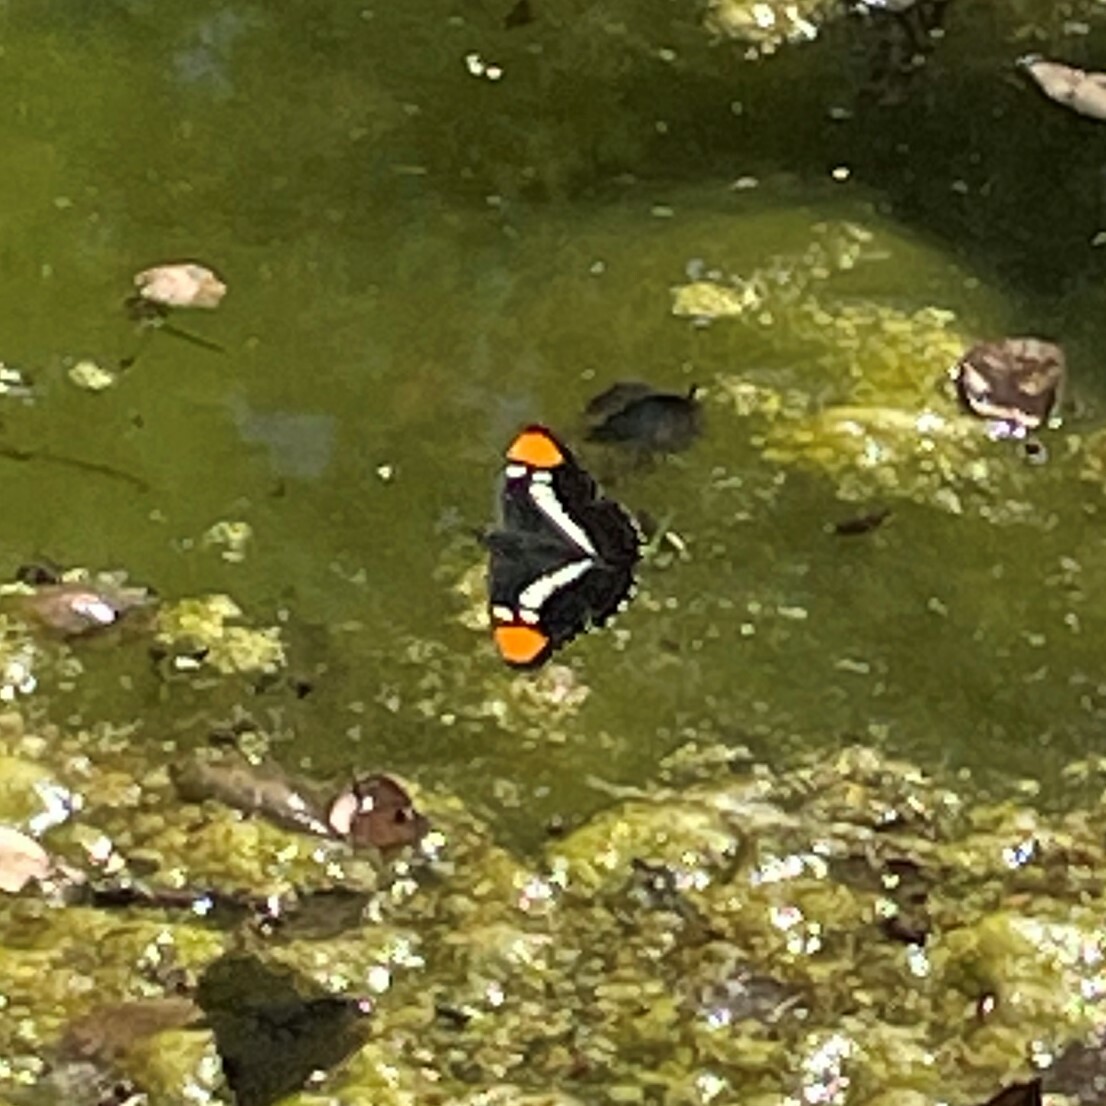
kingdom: Animalia
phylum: Arthropoda
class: Insecta
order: Lepidoptera
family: Nymphalidae
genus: Limenitis
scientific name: Limenitis bredowii
